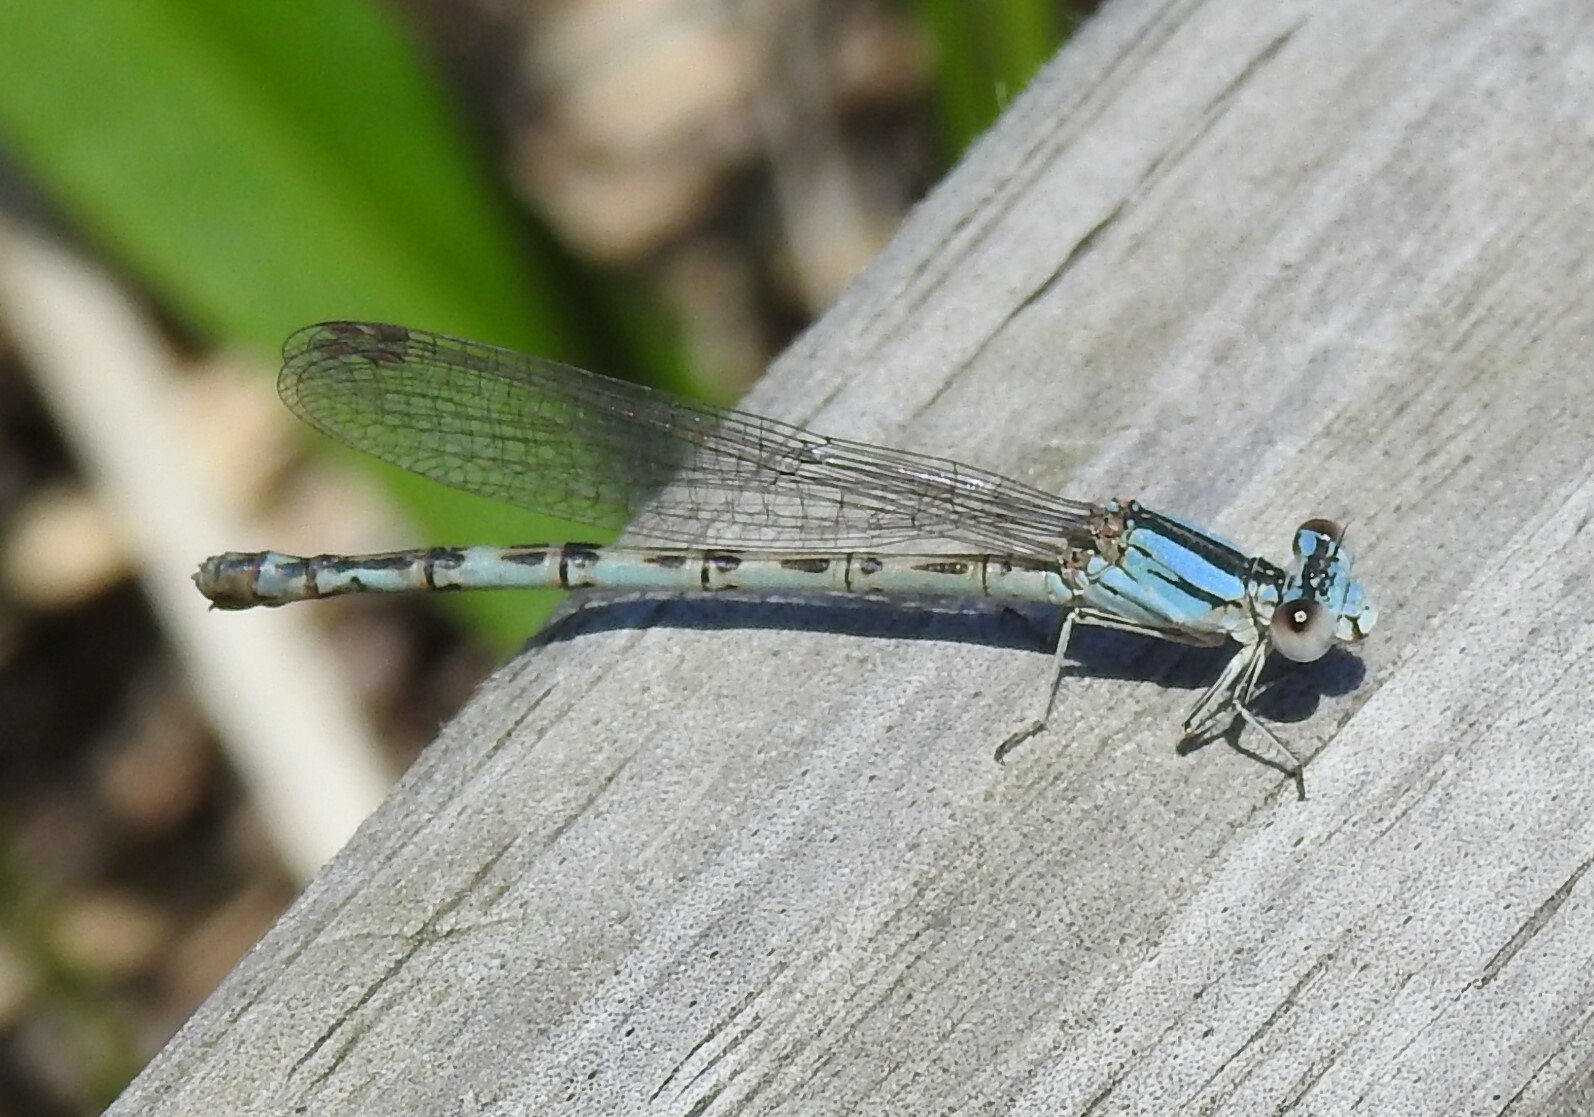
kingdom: Animalia
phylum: Arthropoda
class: Insecta
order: Odonata
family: Coenagrionidae
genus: Argia
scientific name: Argia alberta
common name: Paiute dancer
